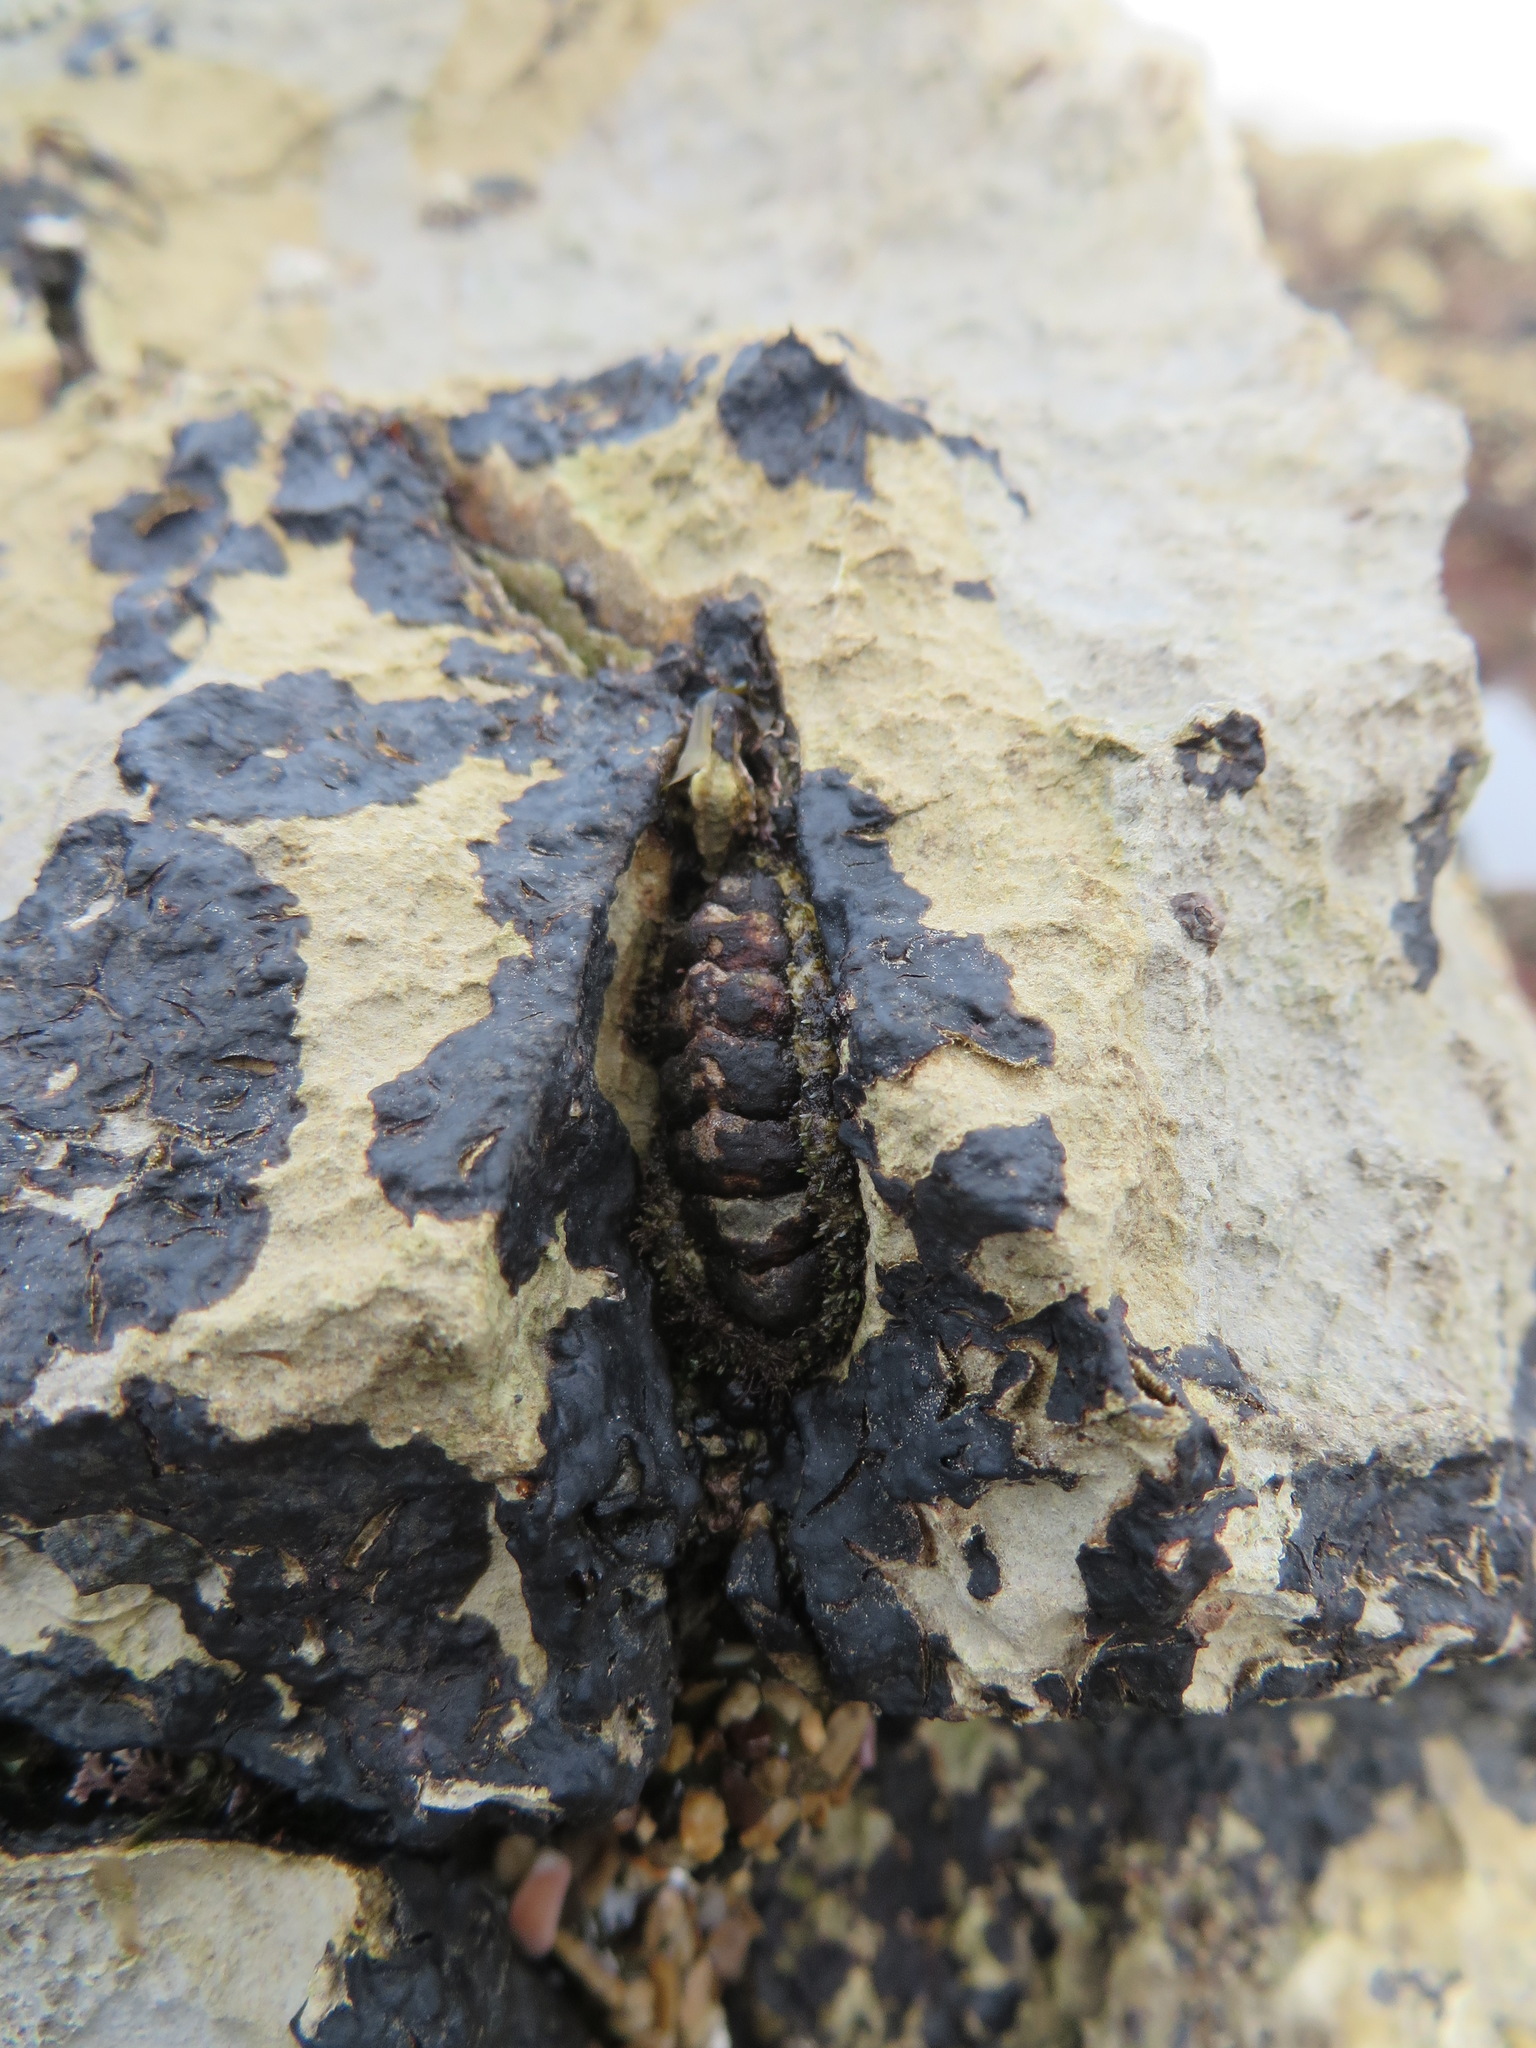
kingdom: Animalia
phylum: Mollusca
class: Polyplacophora
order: Chitonida
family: Tonicellidae
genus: Nuttallina
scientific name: Nuttallina californica
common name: California nuttall chiton
